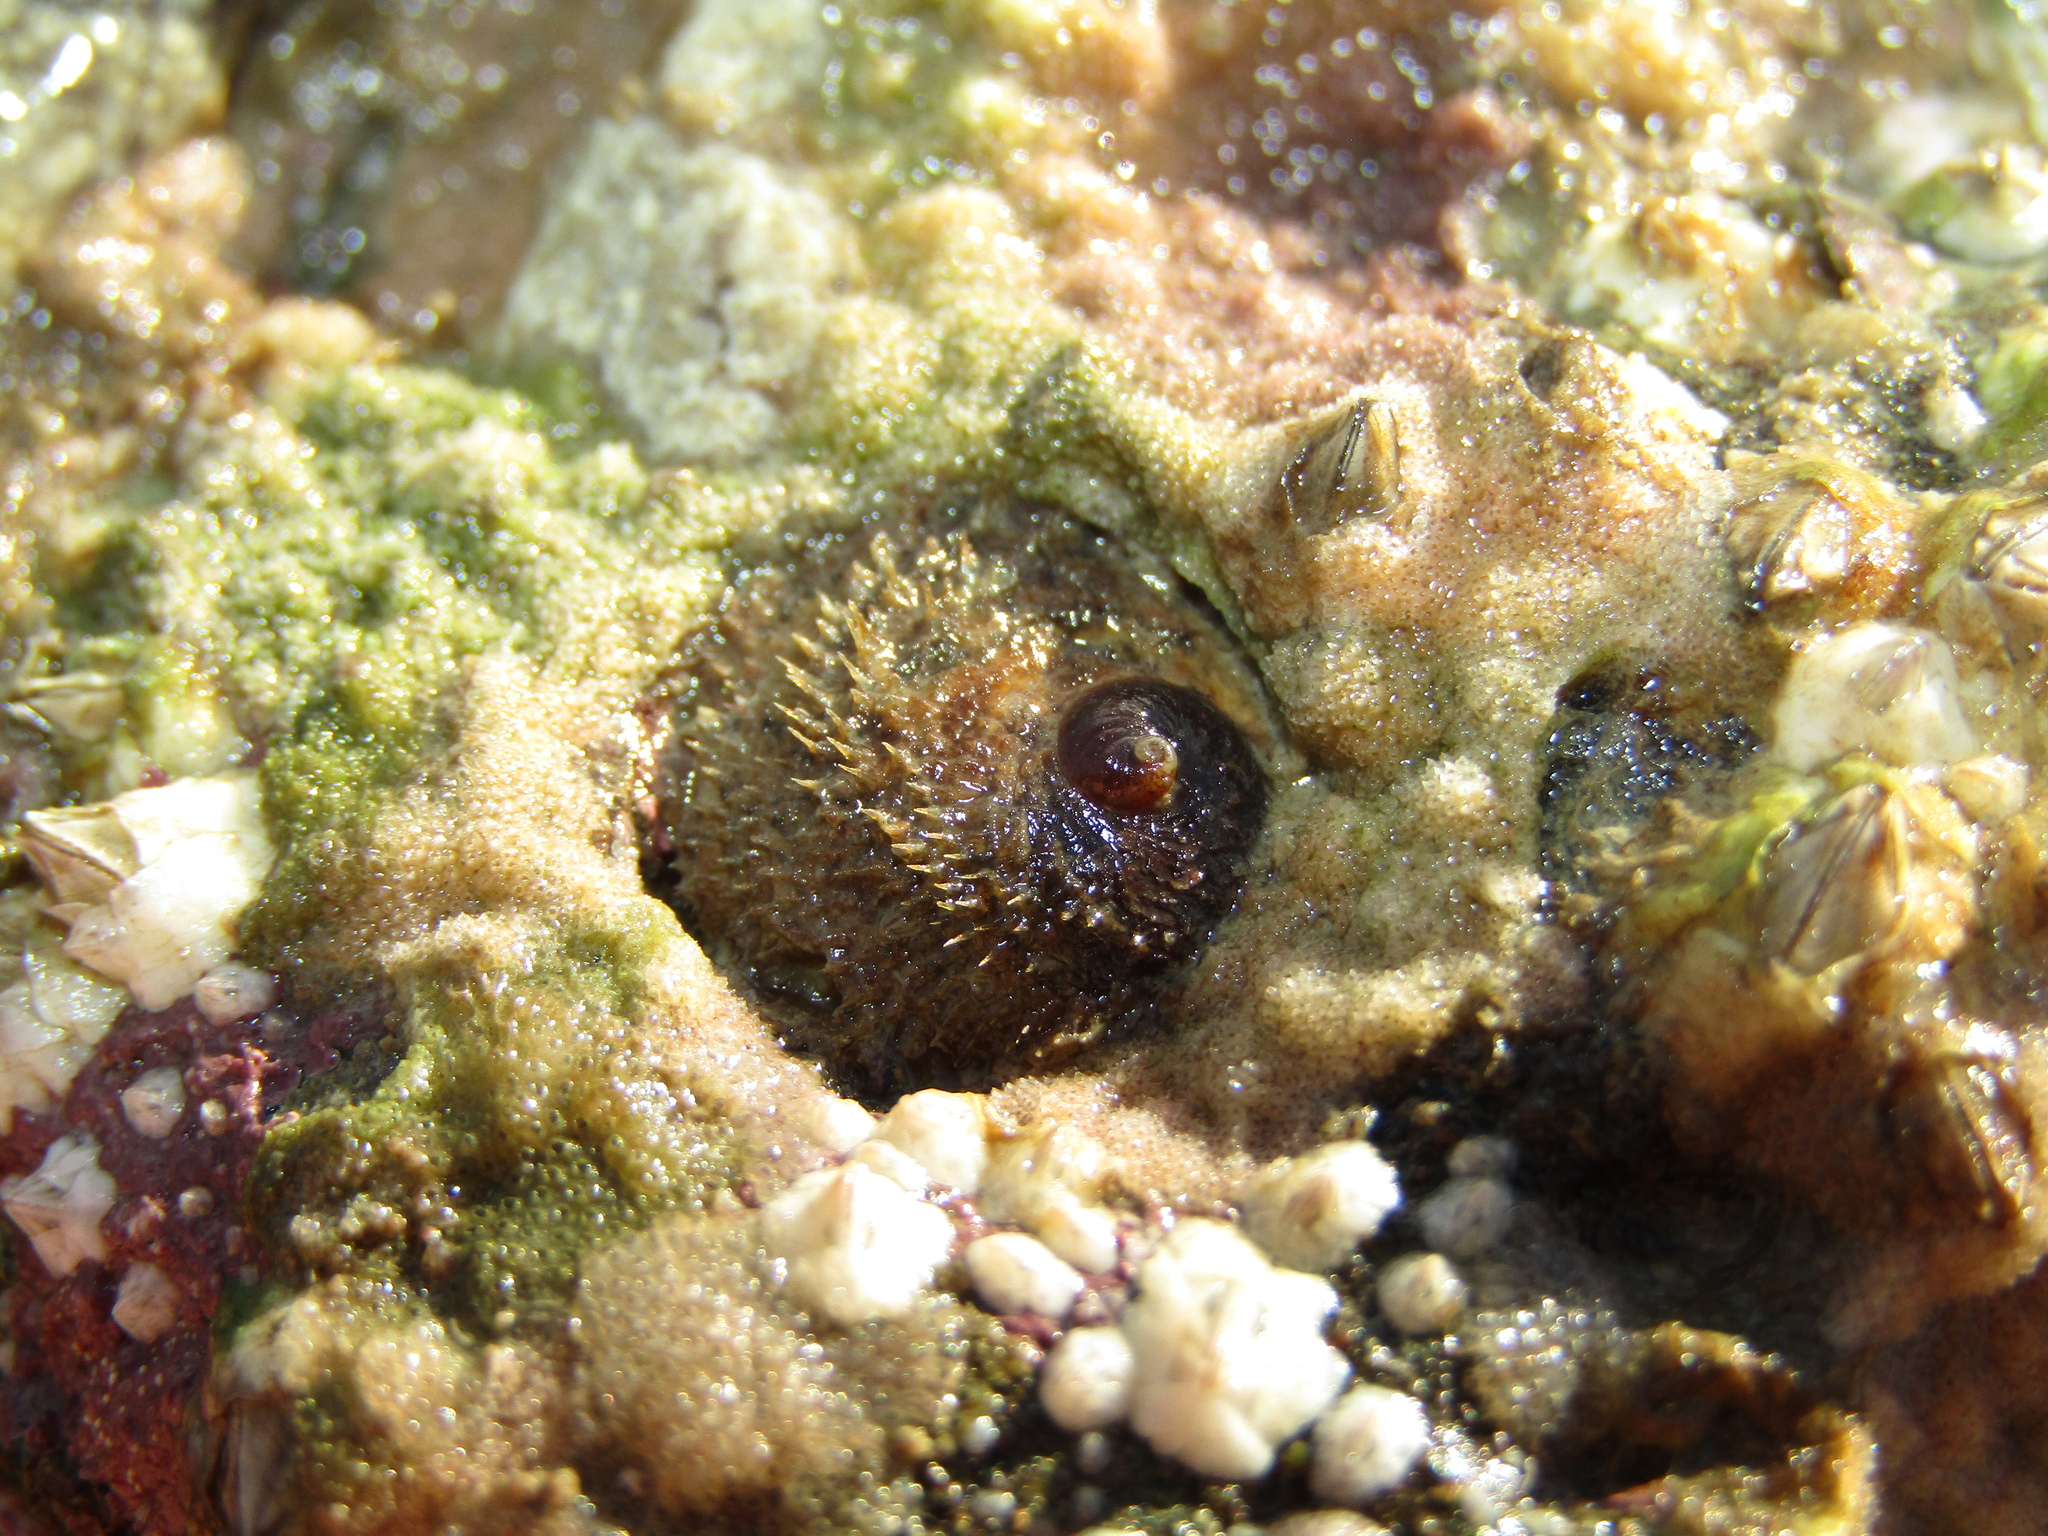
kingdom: Animalia
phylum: Mollusca
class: Gastropoda
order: Littorinimorpha
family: Calyptraeidae
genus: Sigapatella
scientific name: Sigapatella novaezelandiae
